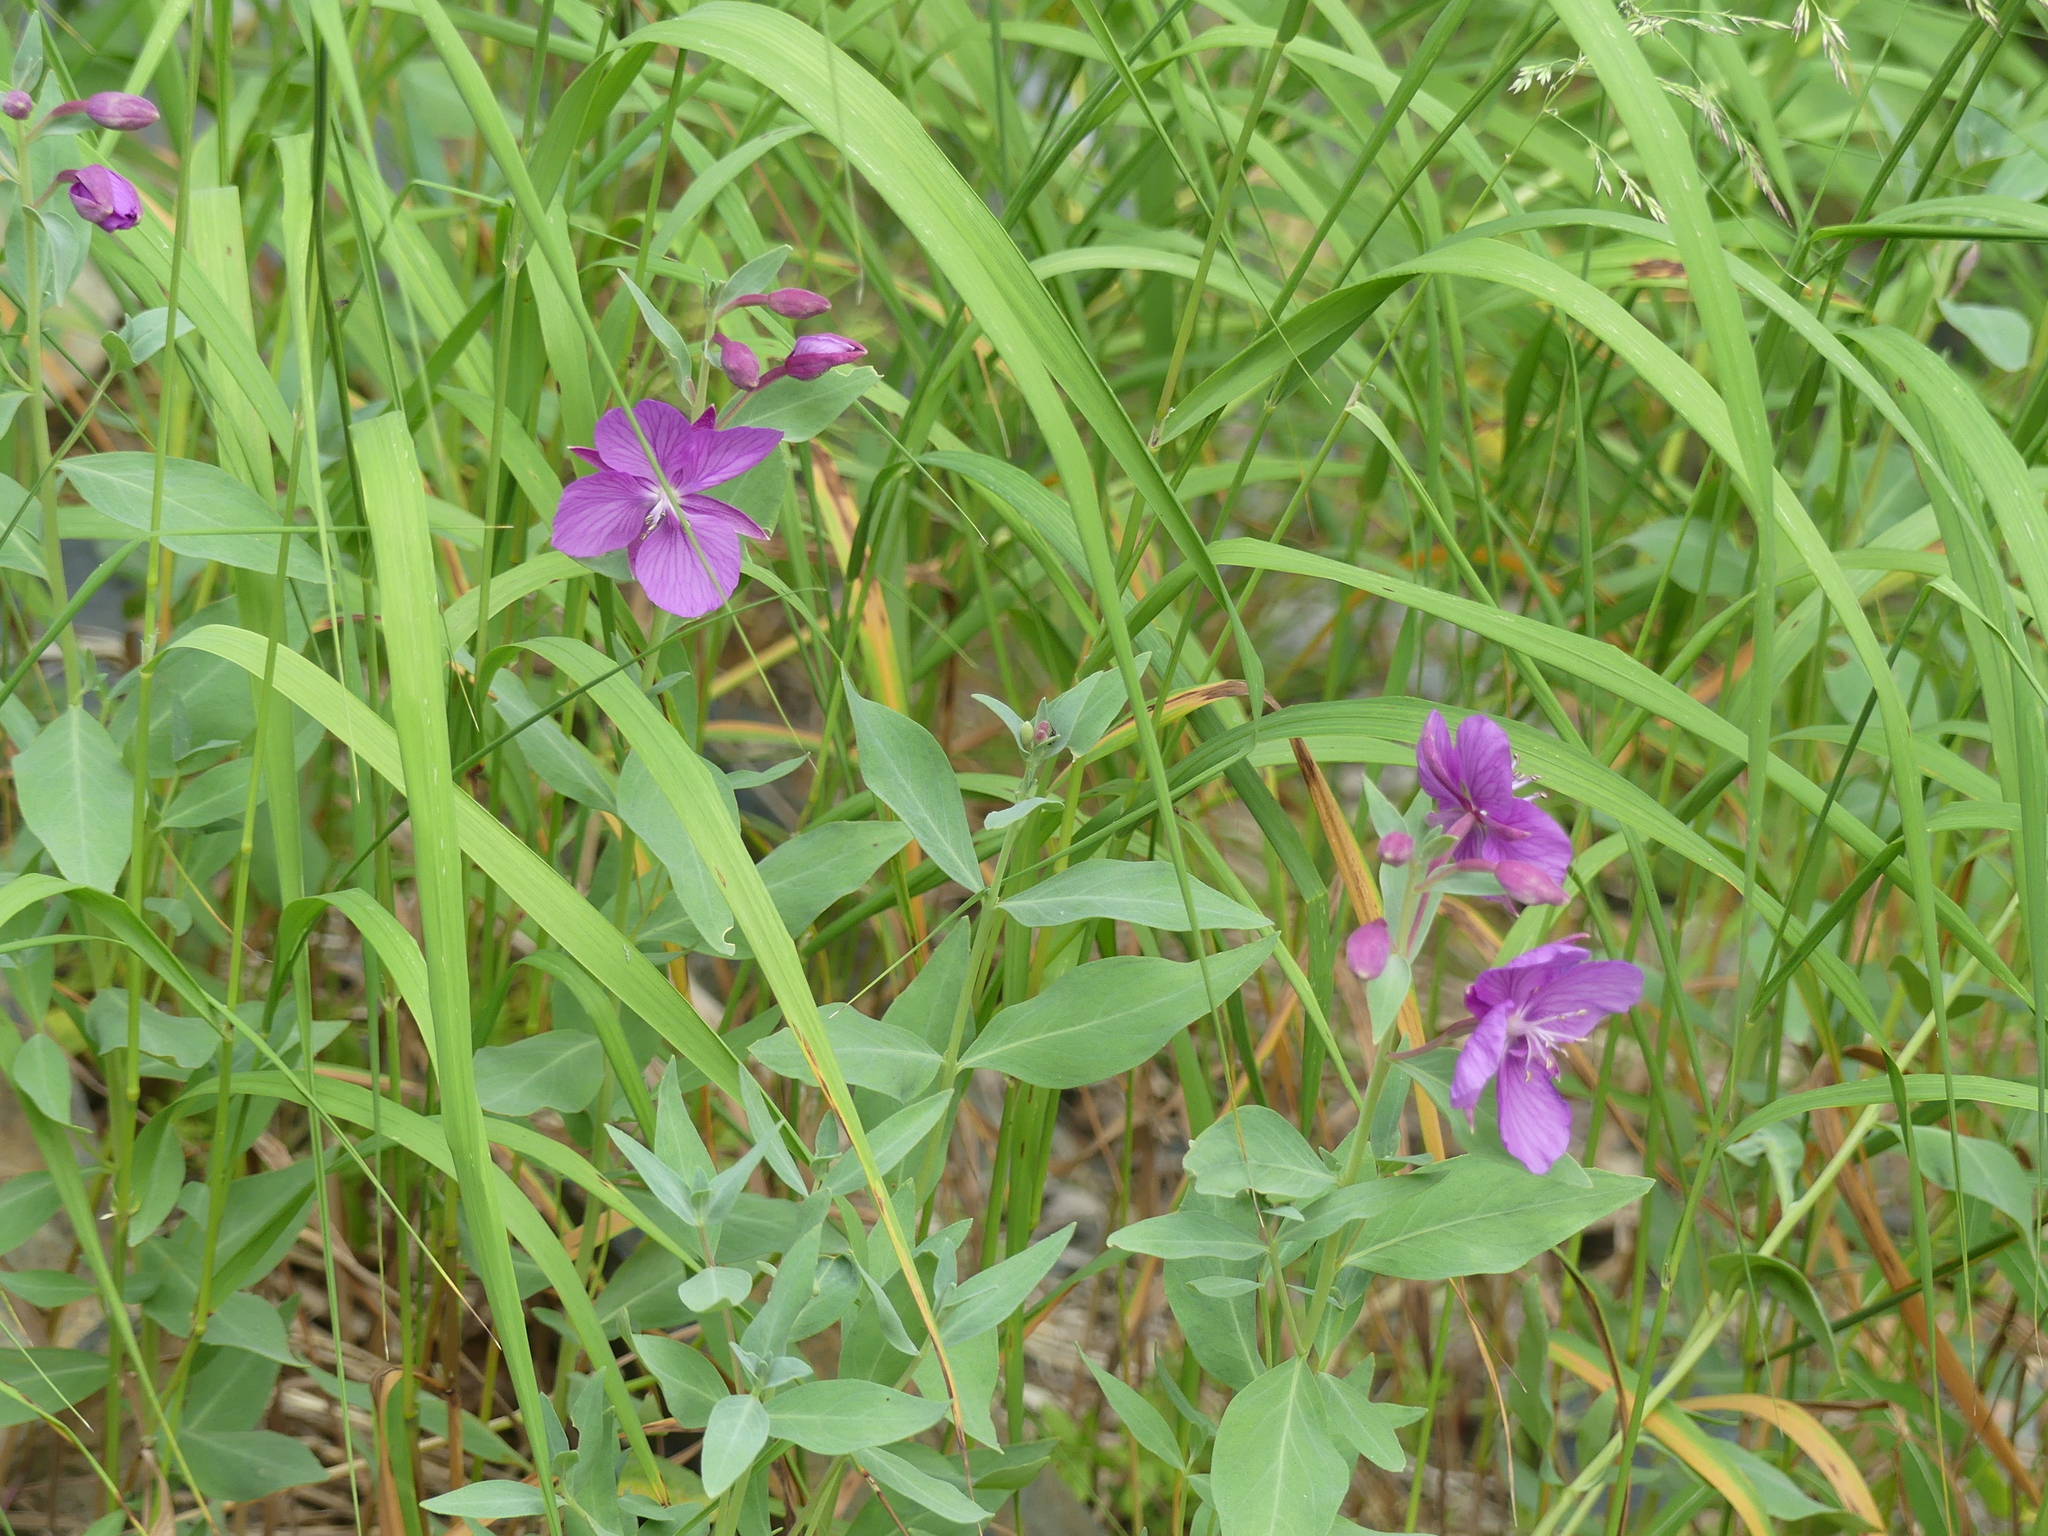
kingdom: Plantae
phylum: Tracheophyta
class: Magnoliopsida
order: Myrtales
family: Onagraceae
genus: Chamaenerion
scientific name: Chamaenerion latifolium
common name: Dwarf fireweed
